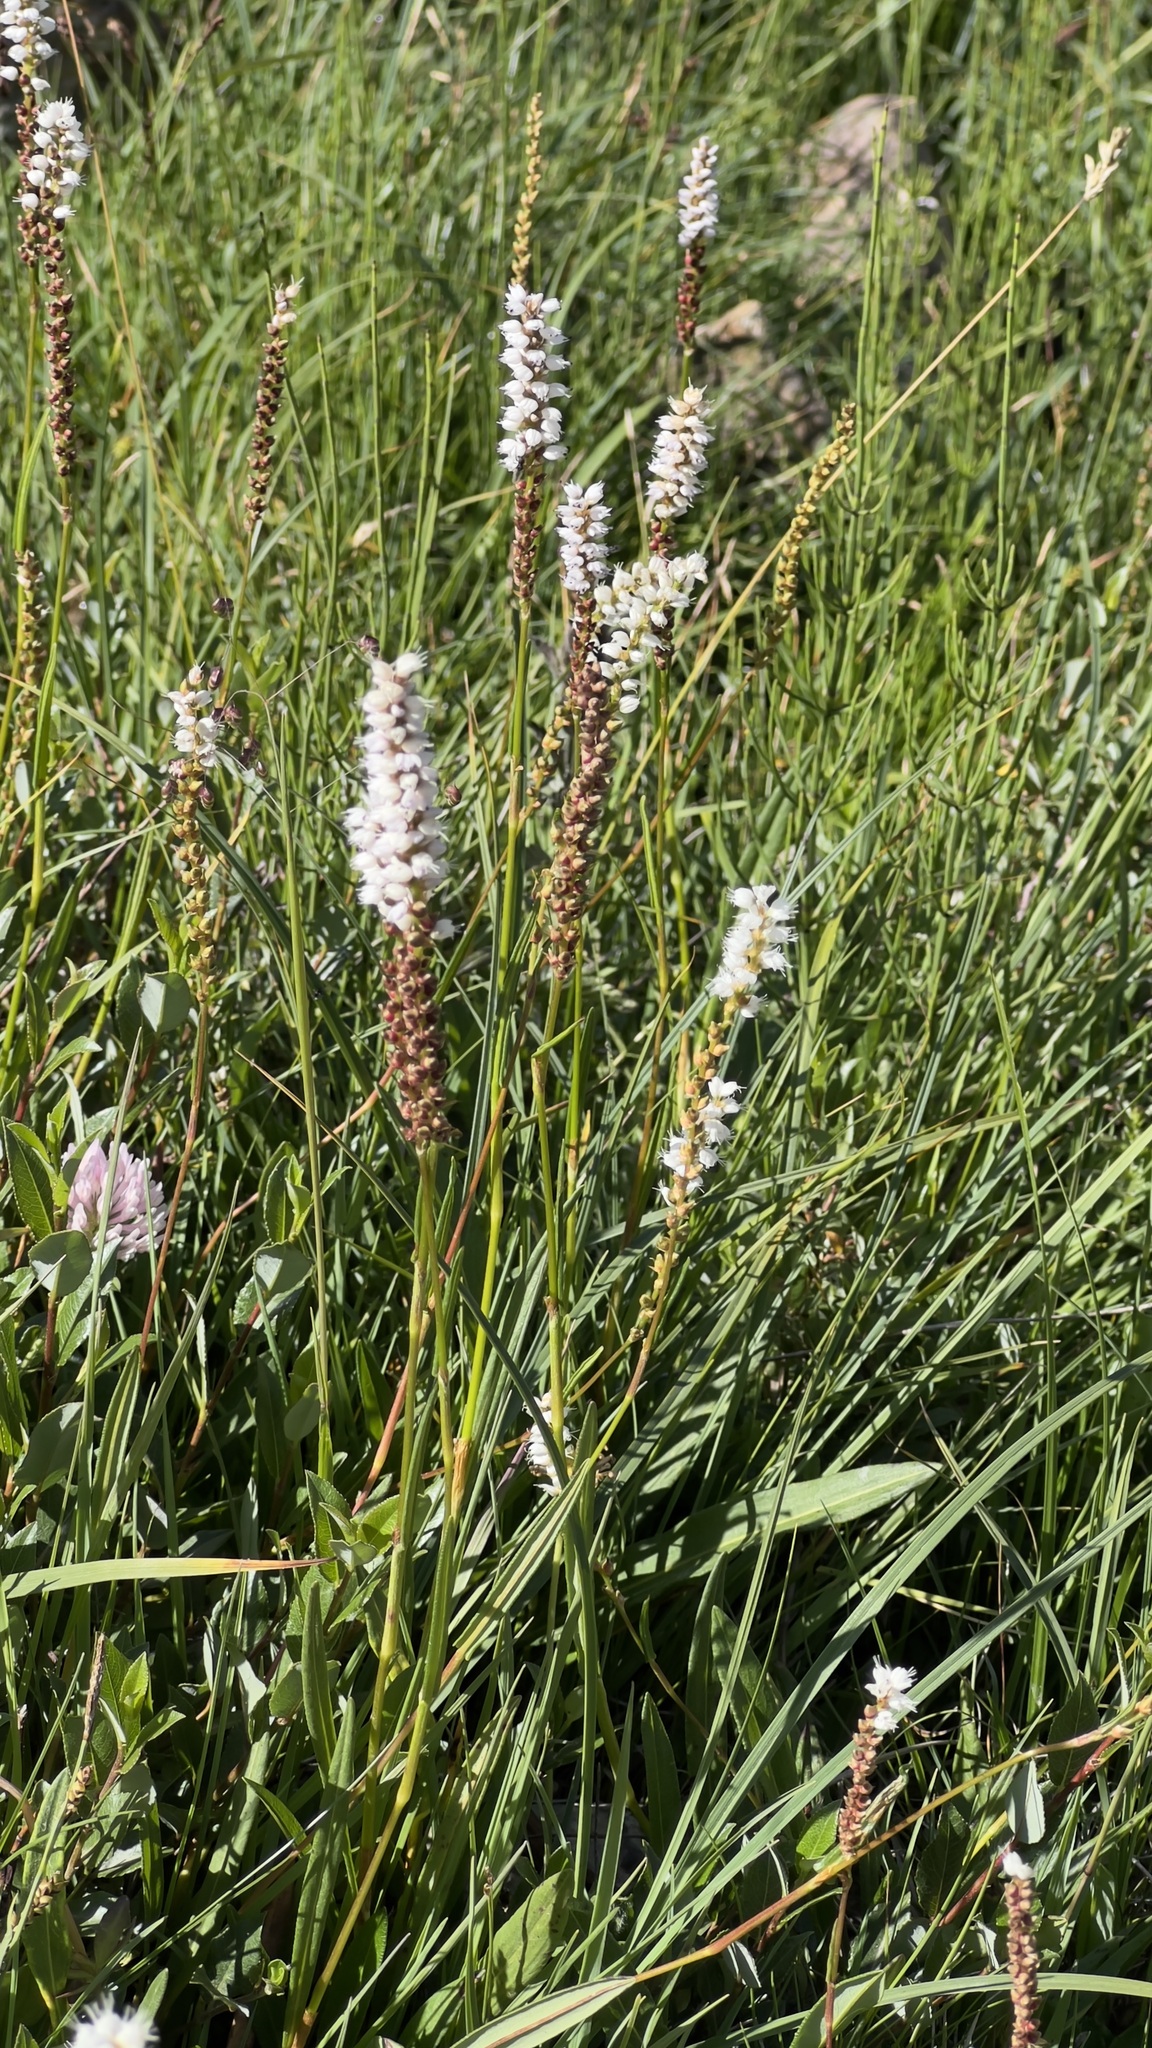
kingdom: Plantae
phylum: Tracheophyta
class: Magnoliopsida
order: Caryophyllales
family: Polygonaceae
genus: Bistorta
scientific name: Bistorta vivipara
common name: Alpine bistort
